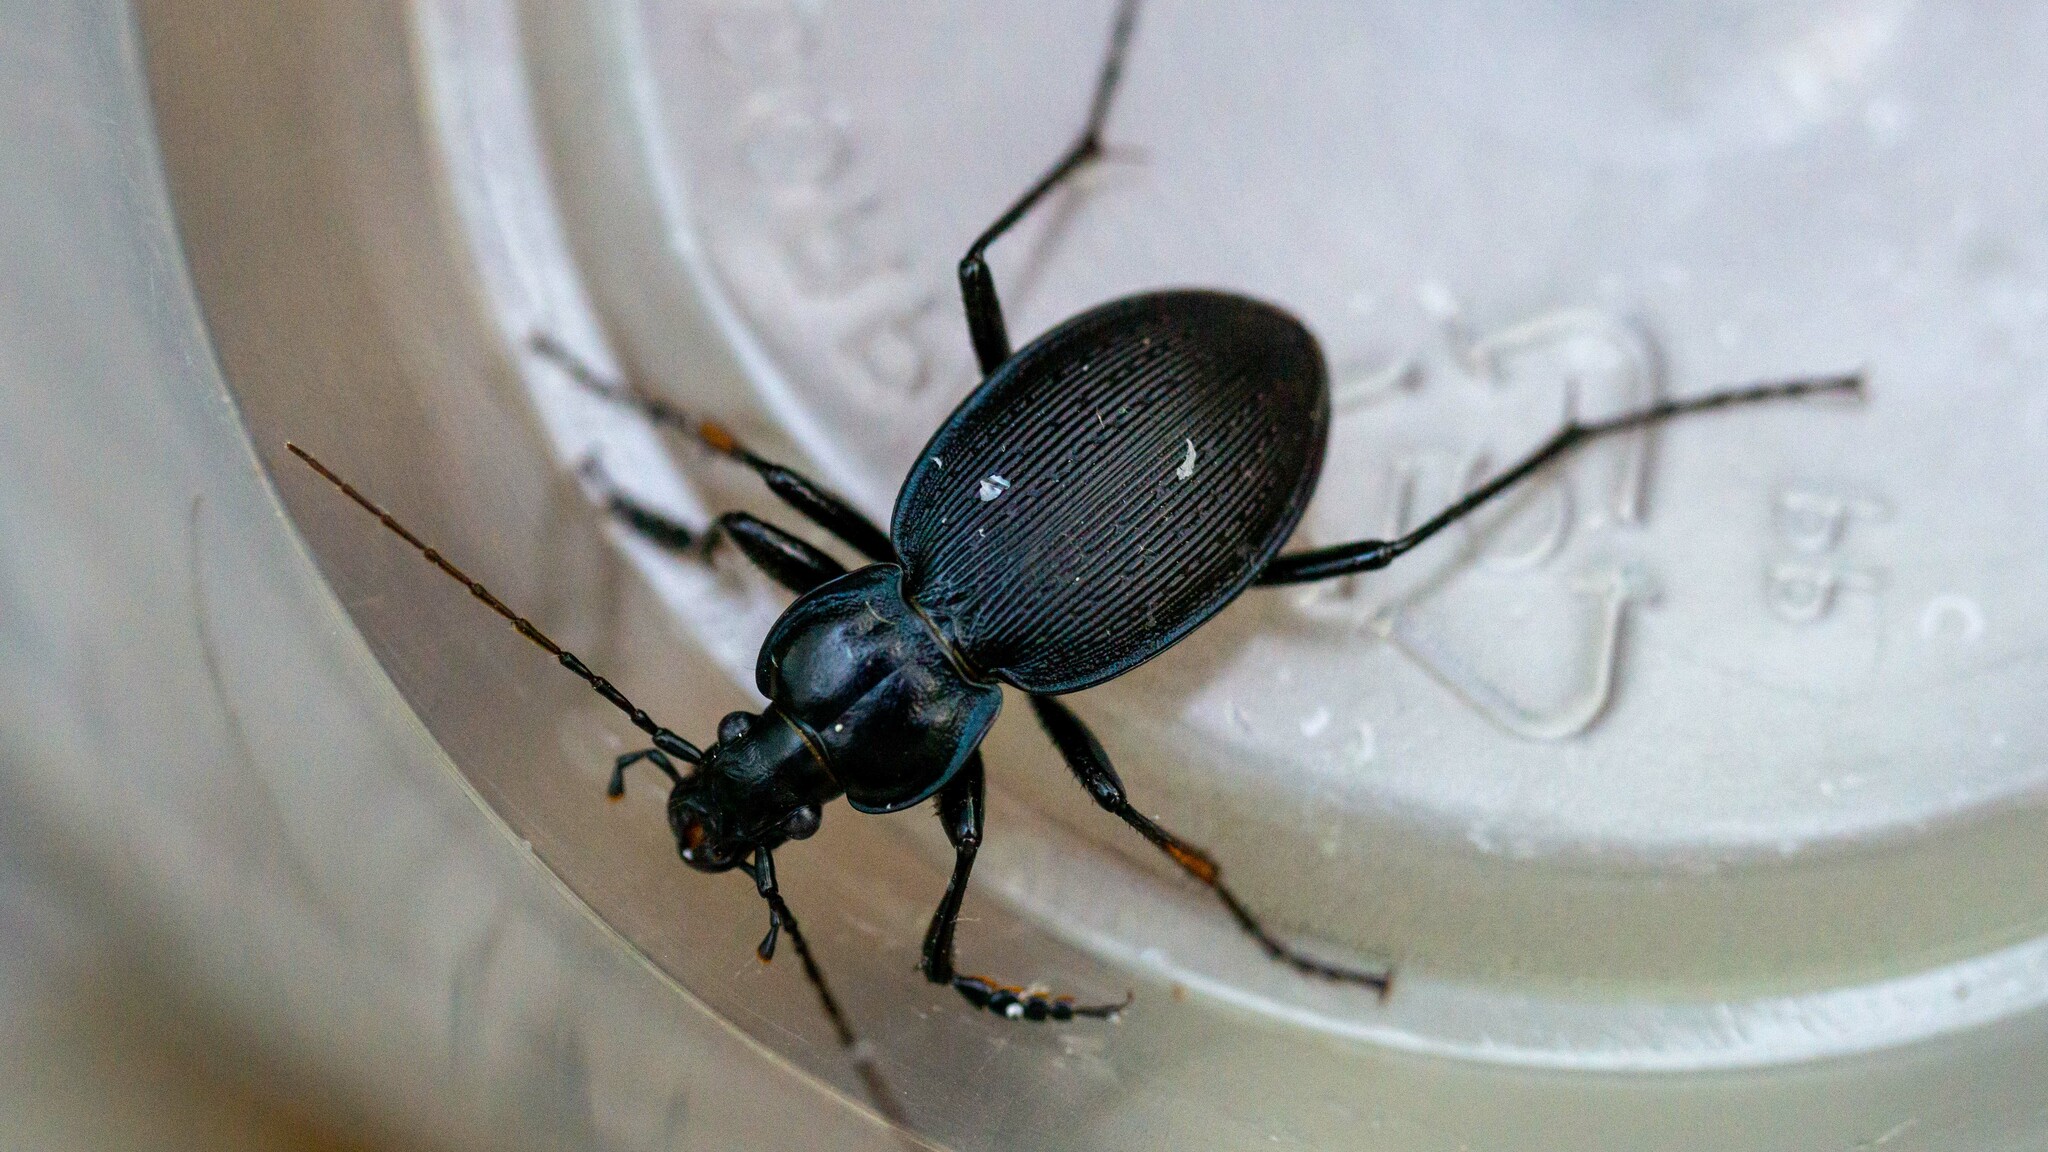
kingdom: Animalia
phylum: Arthropoda
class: Insecta
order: Coleoptera
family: Carabidae
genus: Carabus
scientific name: Carabus goryi
